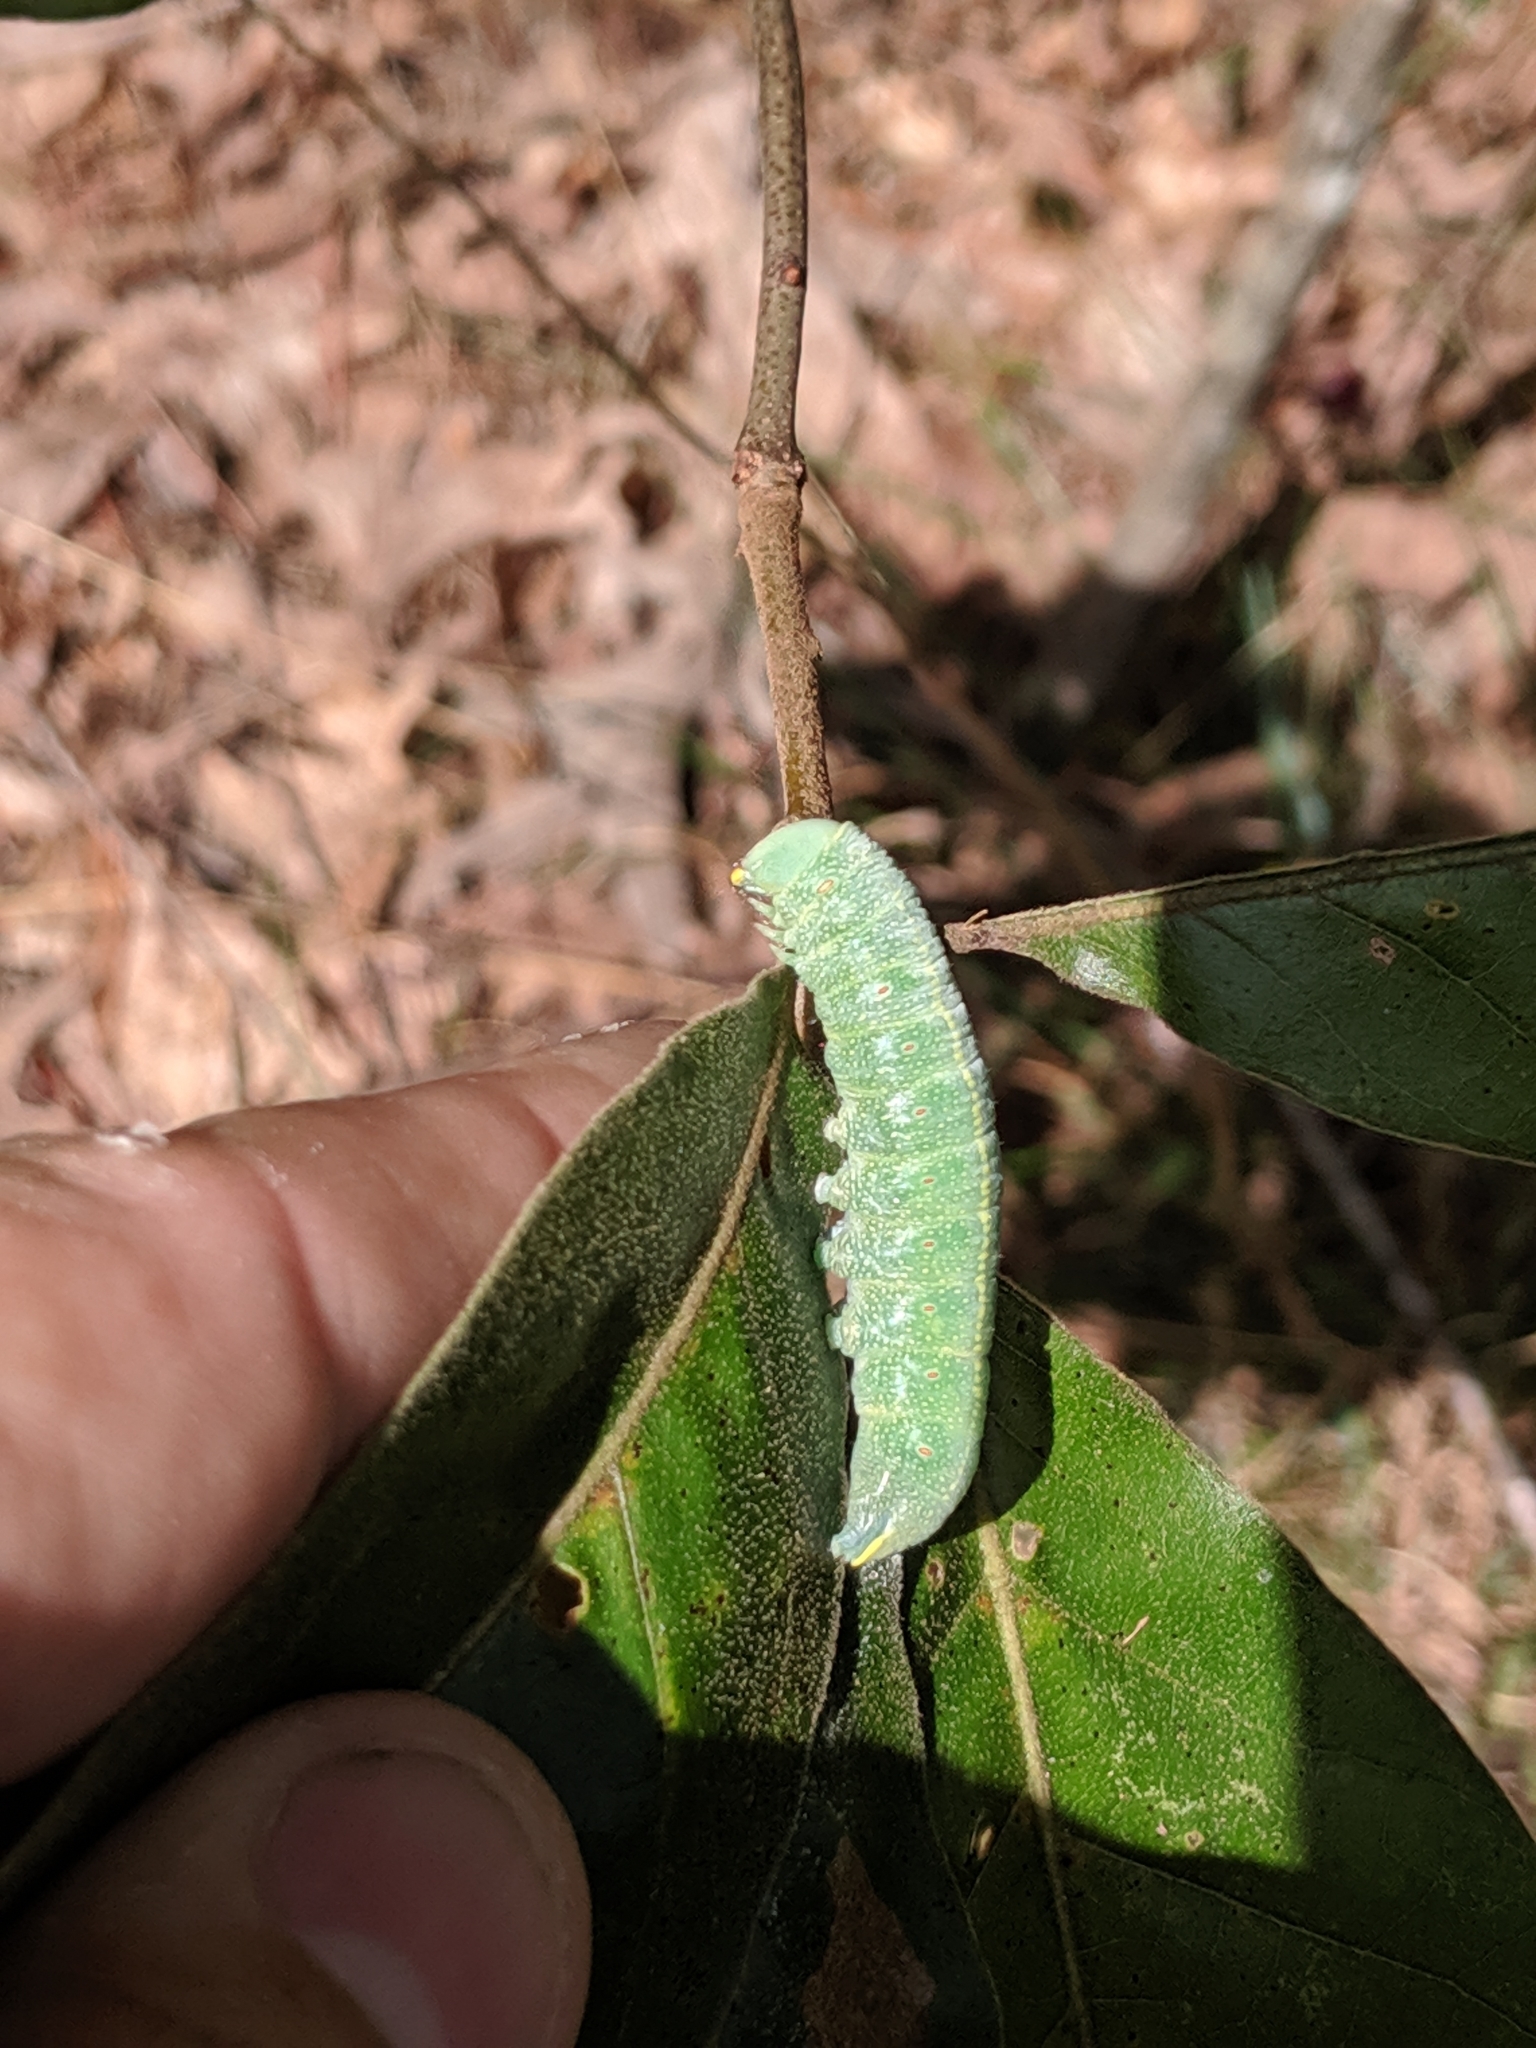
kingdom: Animalia
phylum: Arthropoda
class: Insecta
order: Lepidoptera
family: Notodontidae
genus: Nadata
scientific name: Nadata gibbosa
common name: White-dotted prominent
